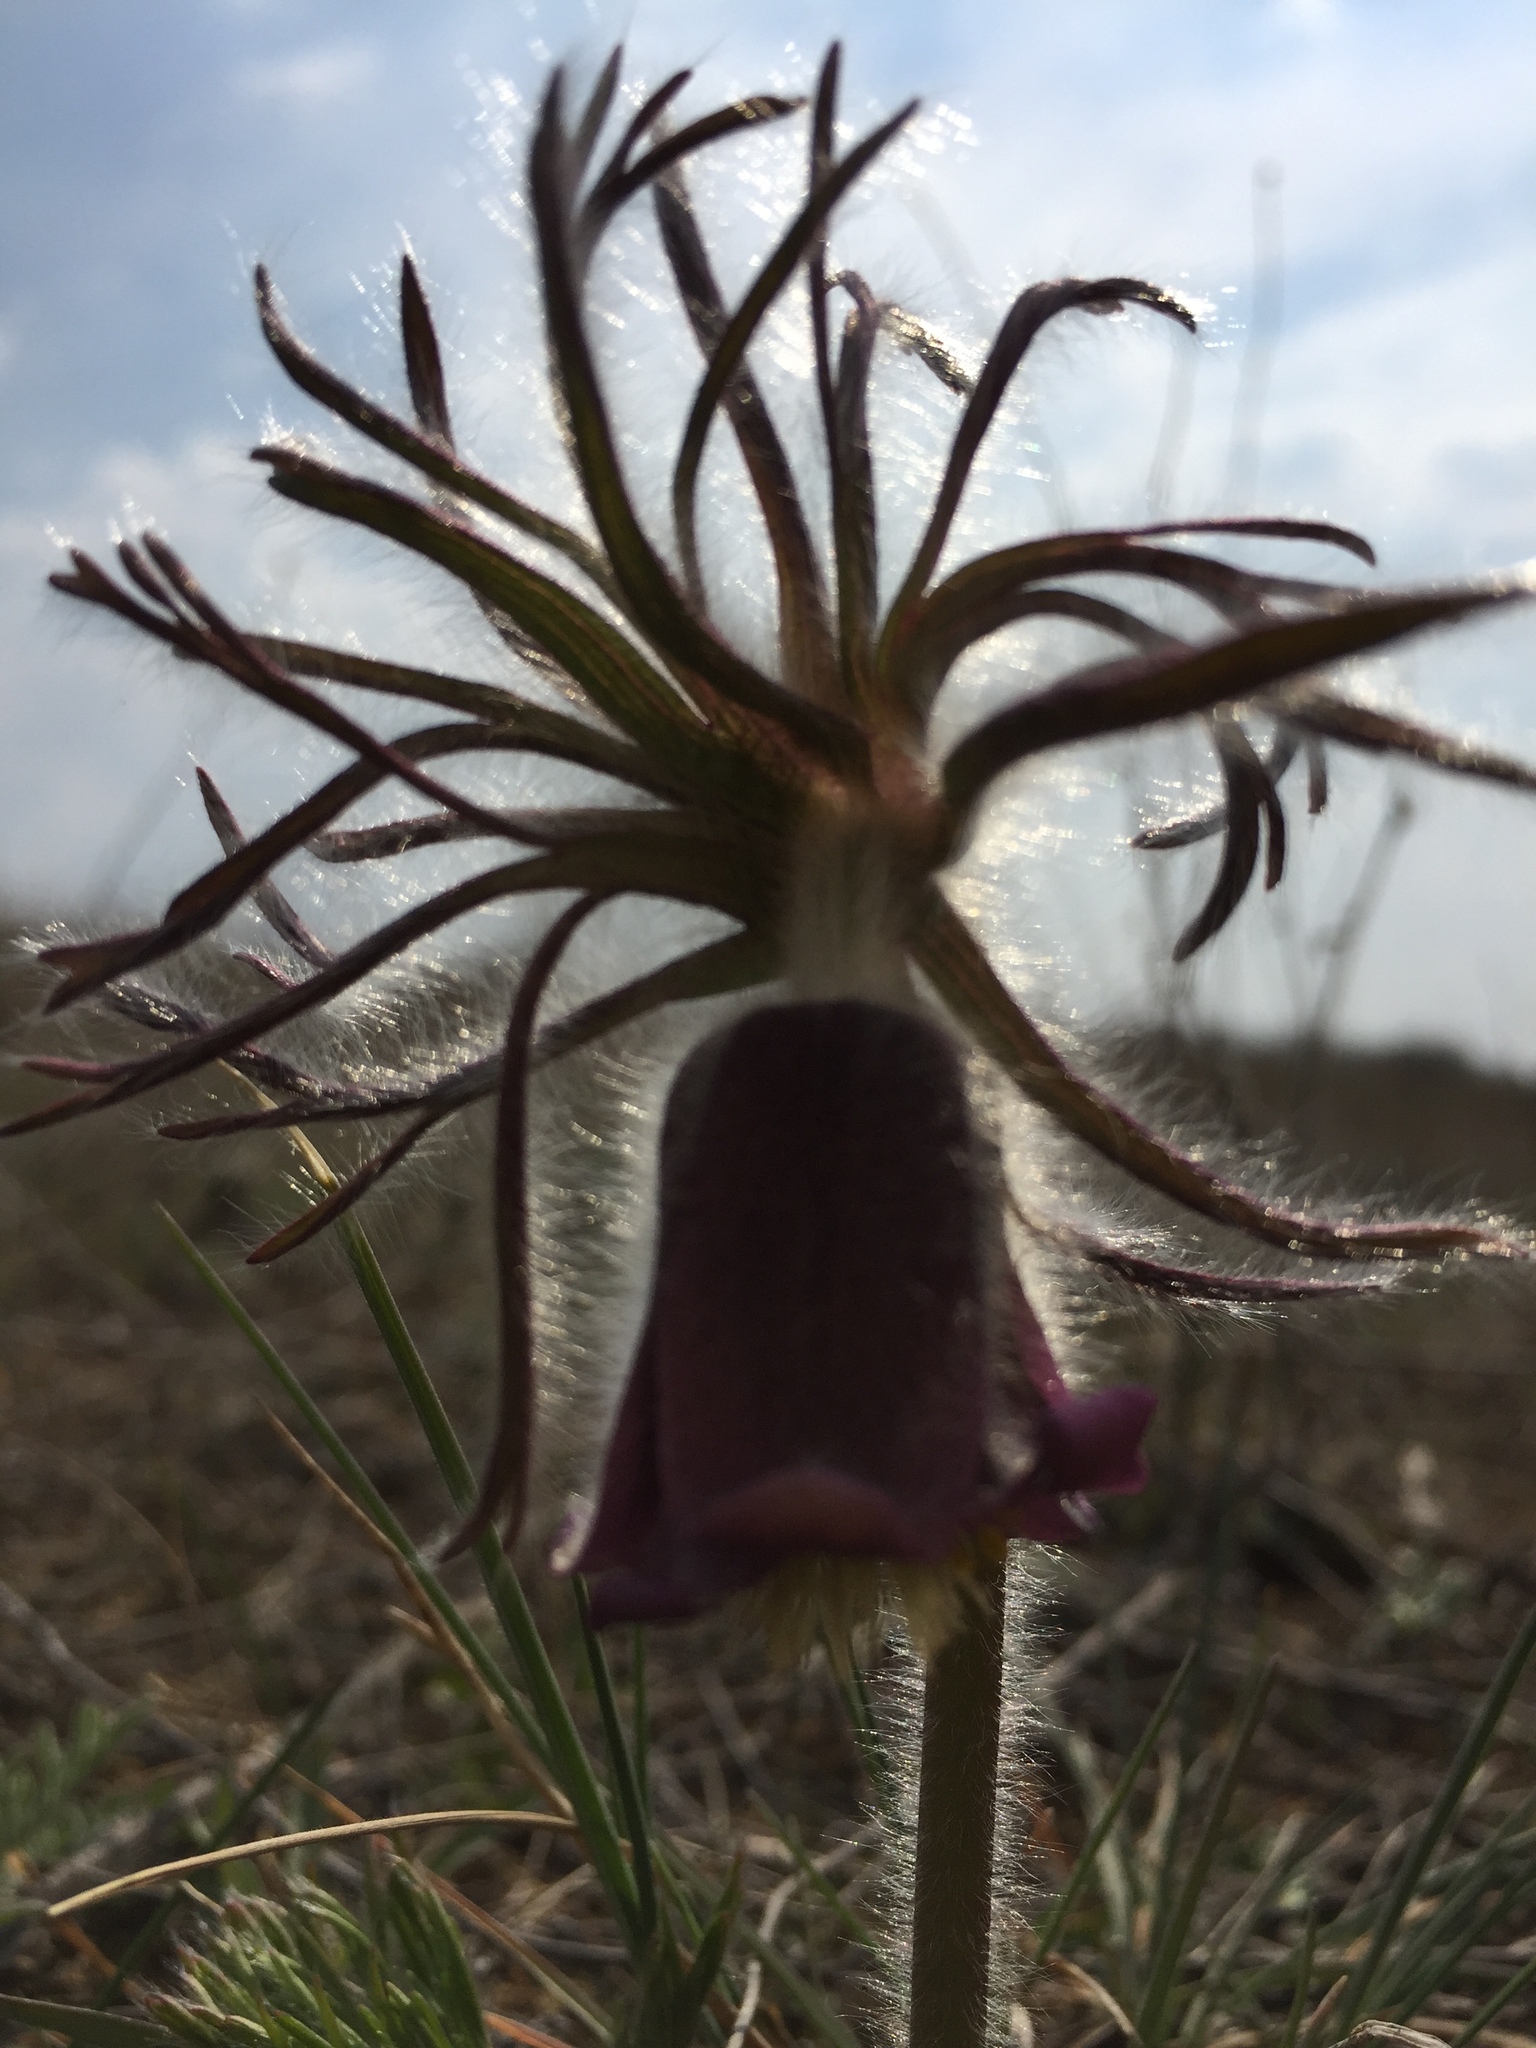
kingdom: Plantae
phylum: Tracheophyta
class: Magnoliopsida
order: Ranunculales
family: Ranunculaceae
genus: Pulsatilla
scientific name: Pulsatilla pratensis
